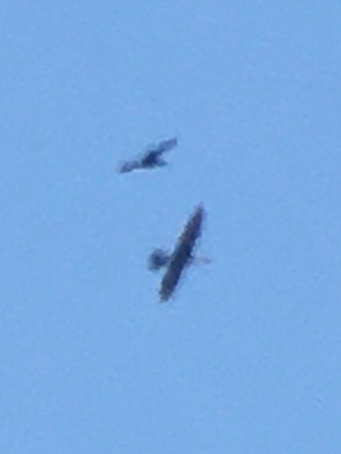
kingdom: Animalia
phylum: Chordata
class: Aves
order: Suliformes
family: Anhingidae
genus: Anhinga
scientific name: Anhinga anhinga
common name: Anhinga
